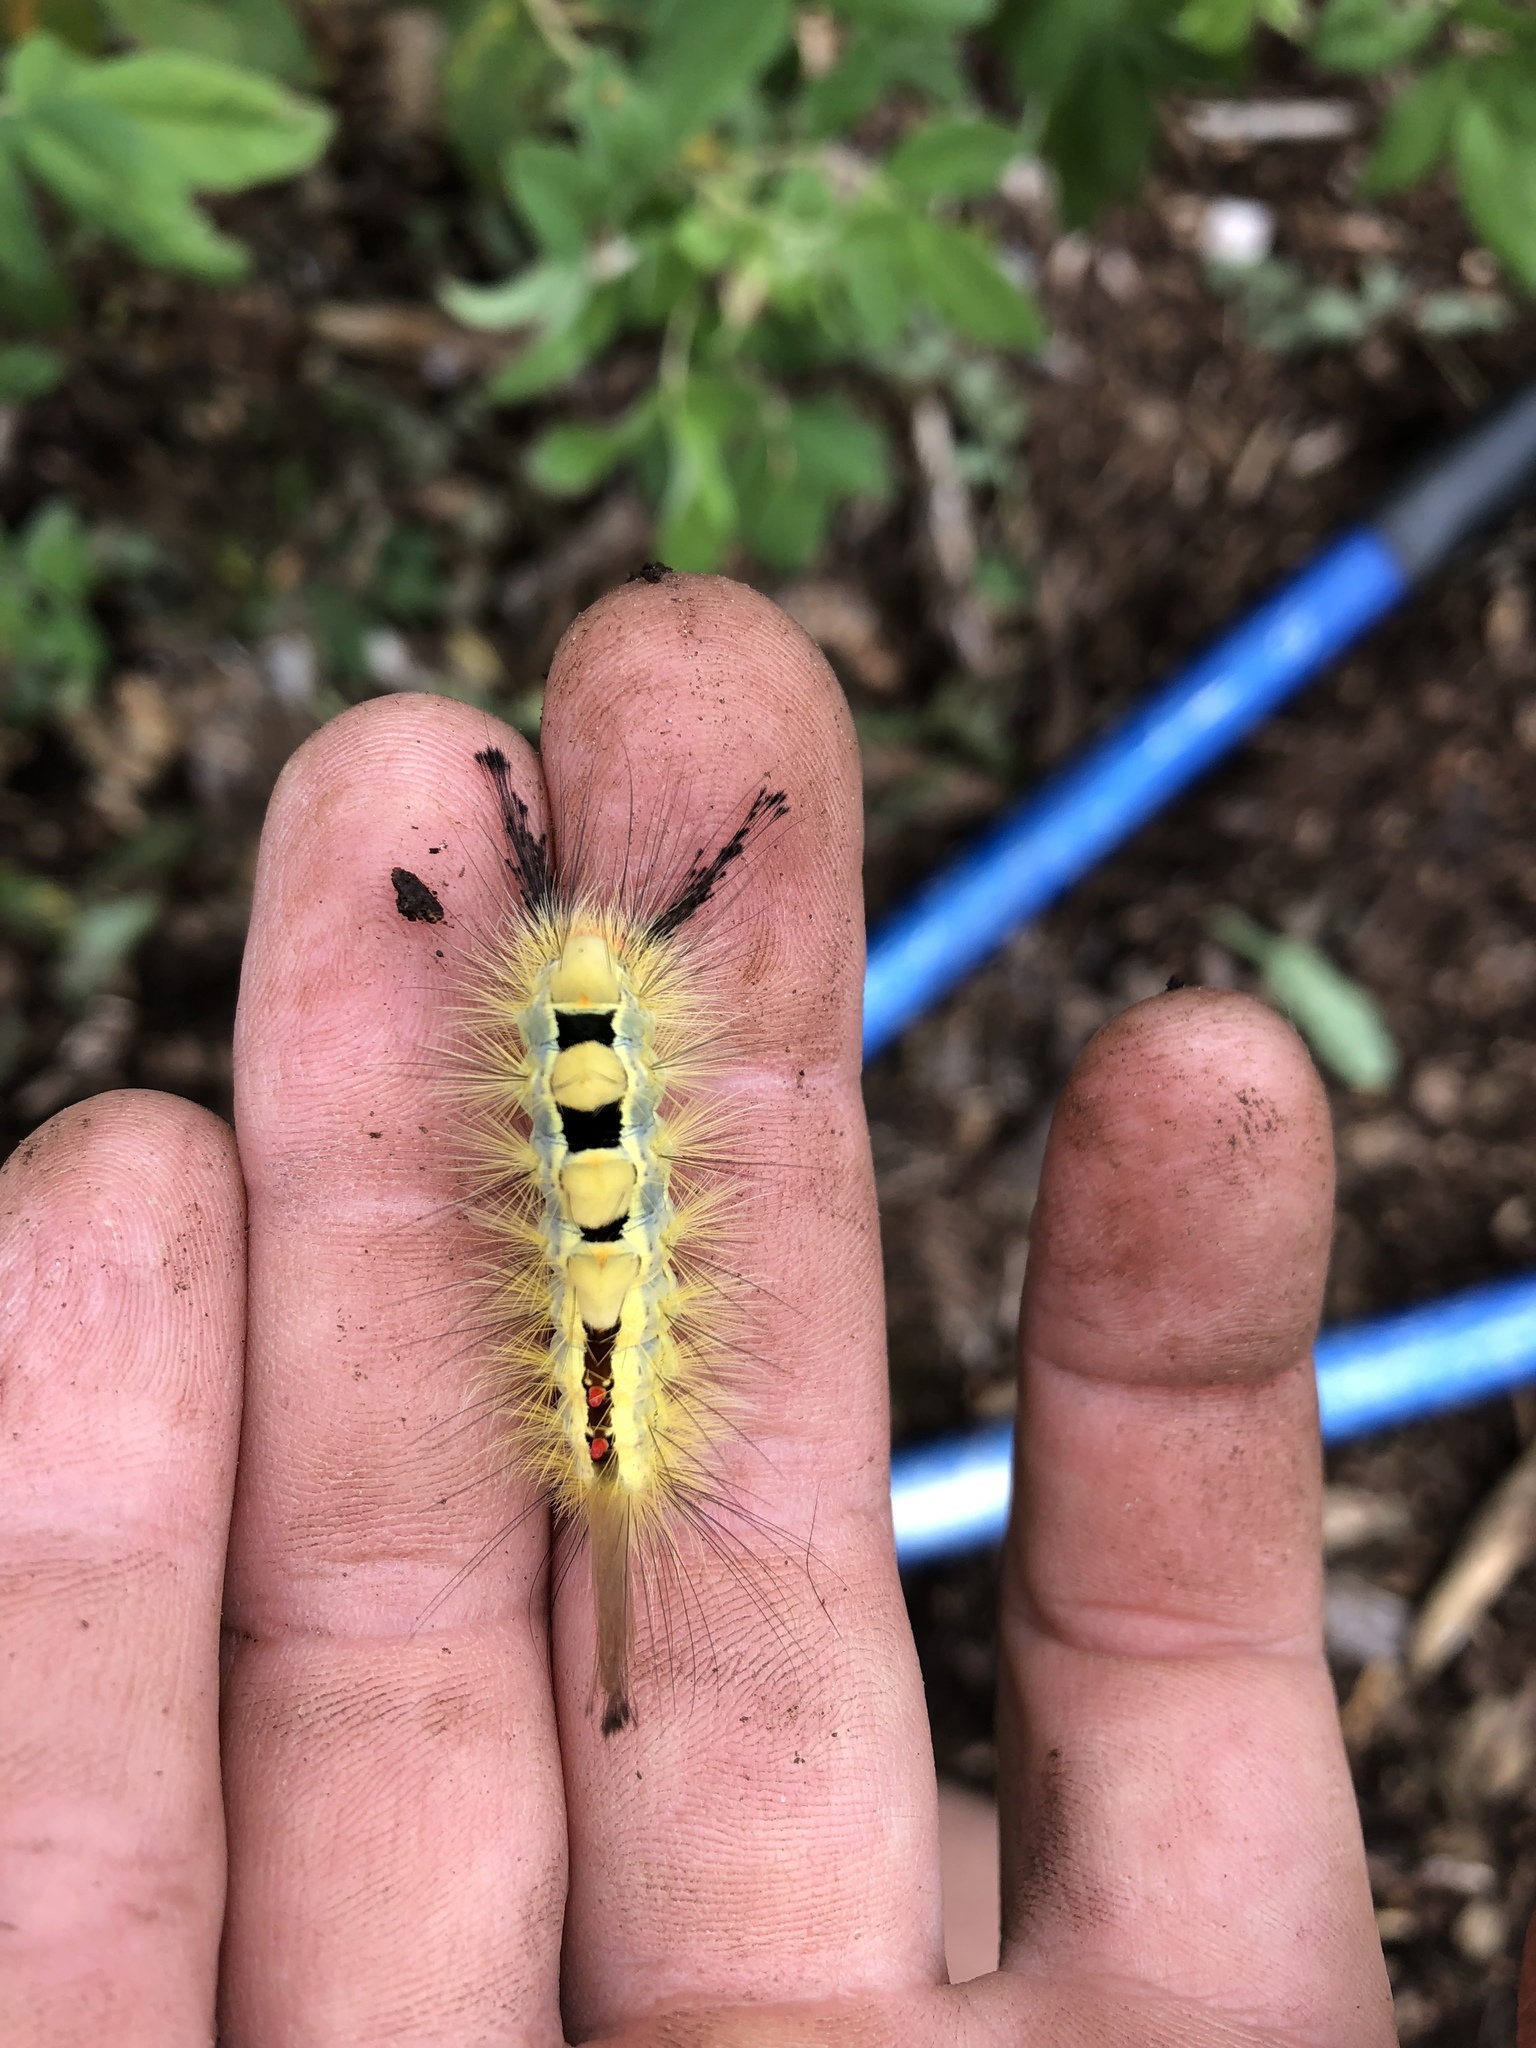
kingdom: Animalia
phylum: Arthropoda
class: Insecta
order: Lepidoptera
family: Erebidae
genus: Orgyia
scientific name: Orgyia leucostigma
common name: White-marked tussock moth
